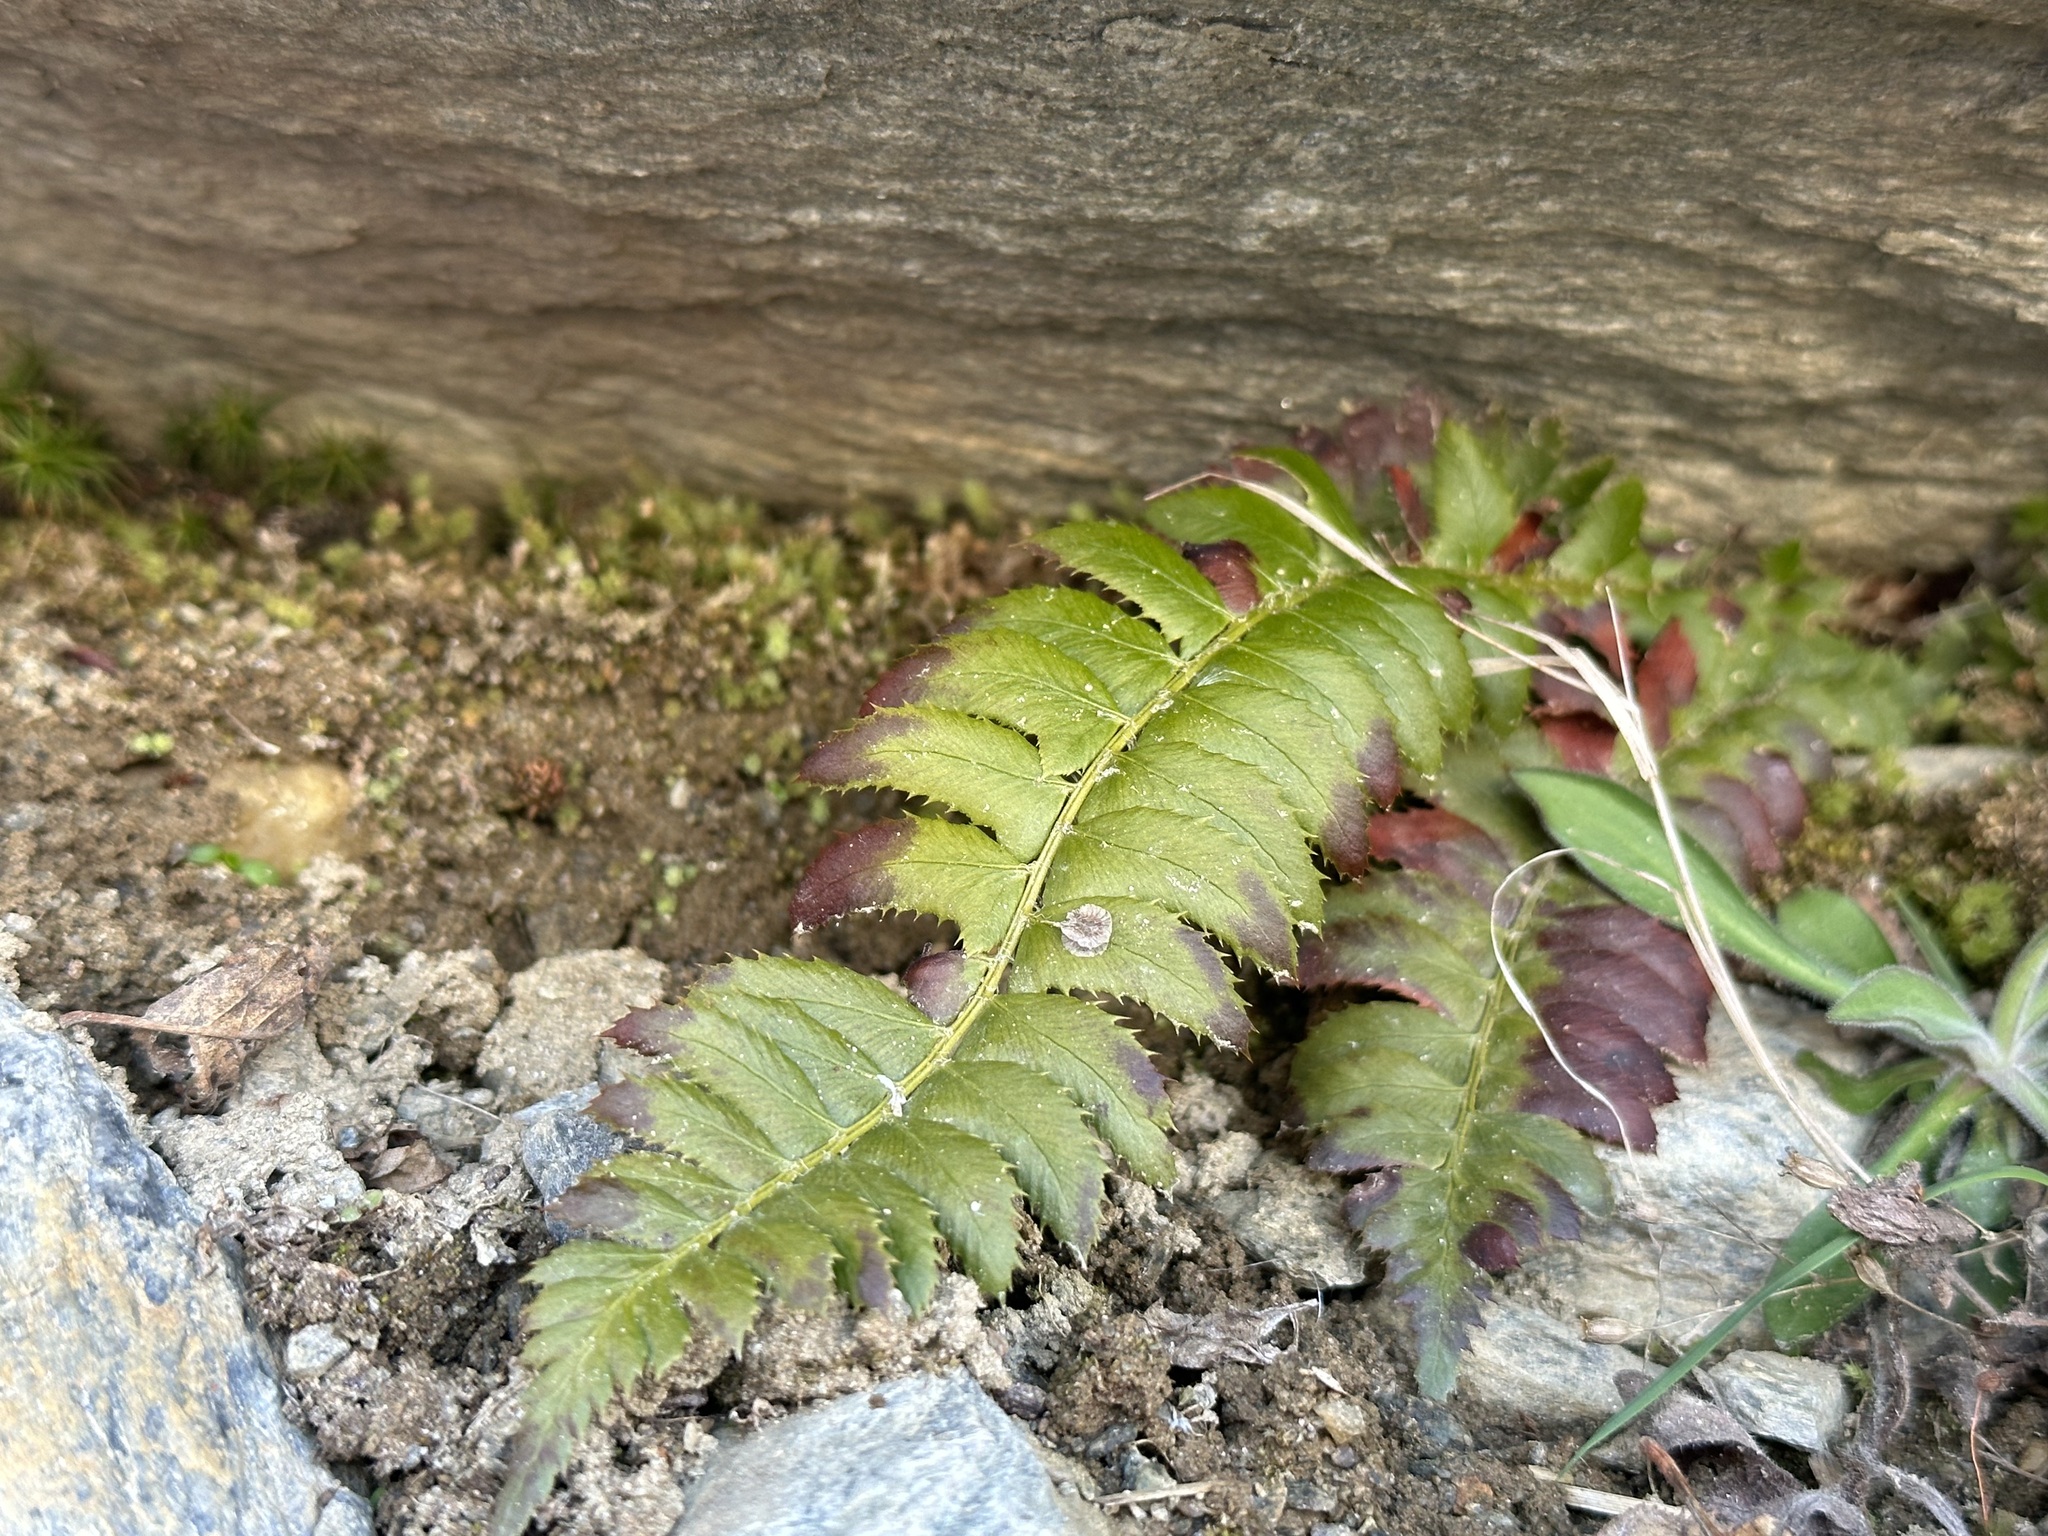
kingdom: Plantae
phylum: Tracheophyta
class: Polypodiopsida
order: Polypodiales
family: Dryopteridaceae
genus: Polystichum
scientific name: Polystichum lonchitis
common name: Holly fern
